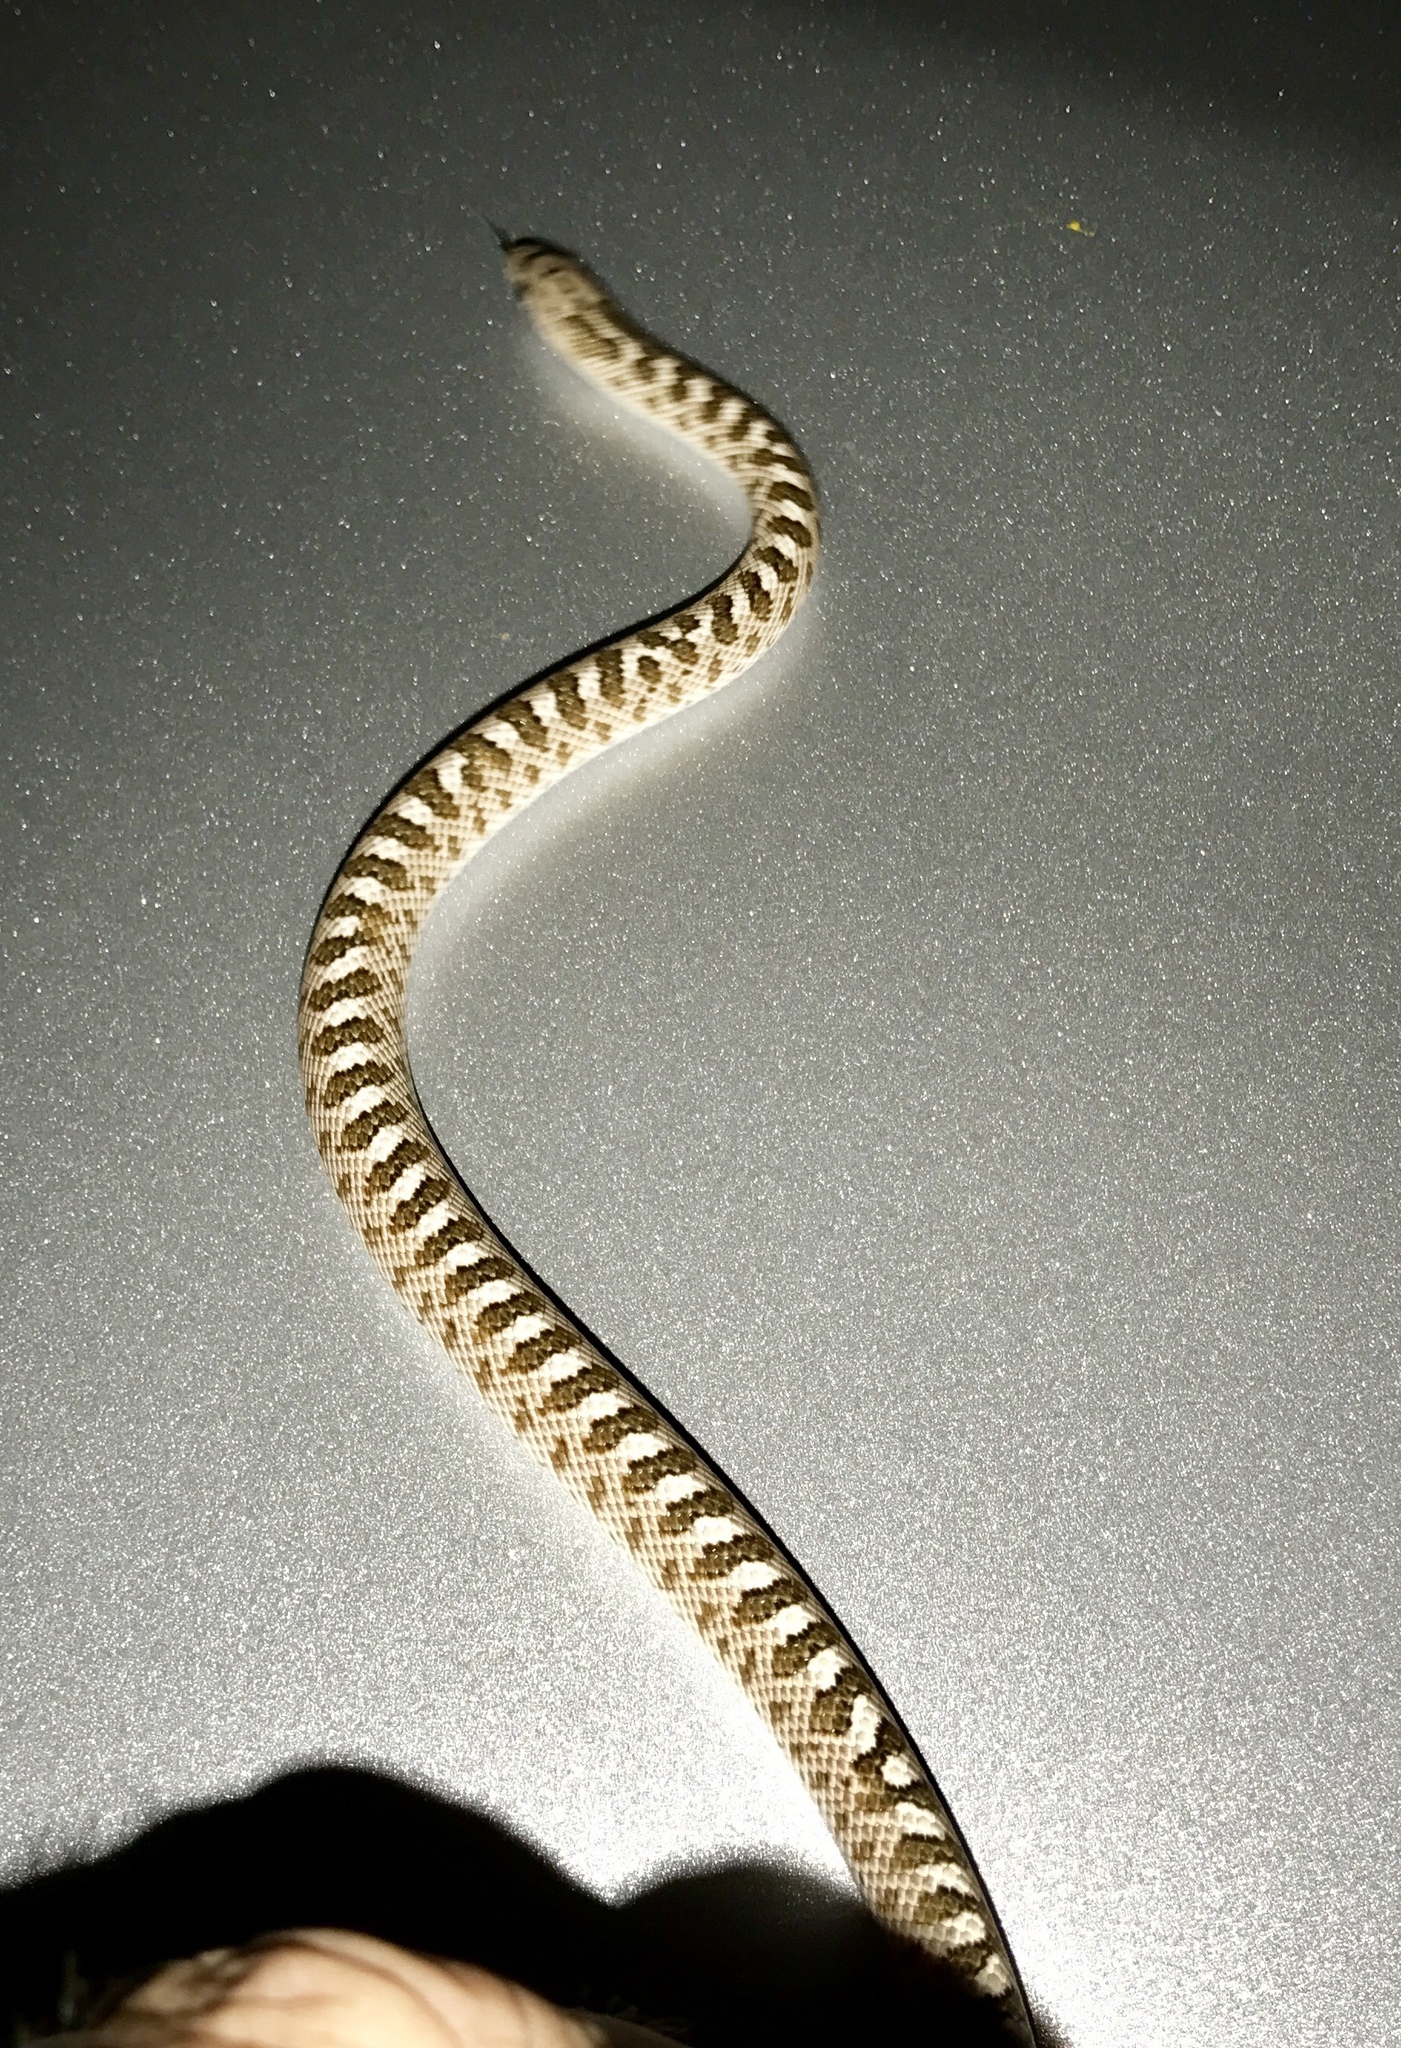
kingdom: Animalia
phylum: Chordata
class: Squamata
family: Colubridae
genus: Arizona
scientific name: Arizona elegans
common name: Glossy snake
